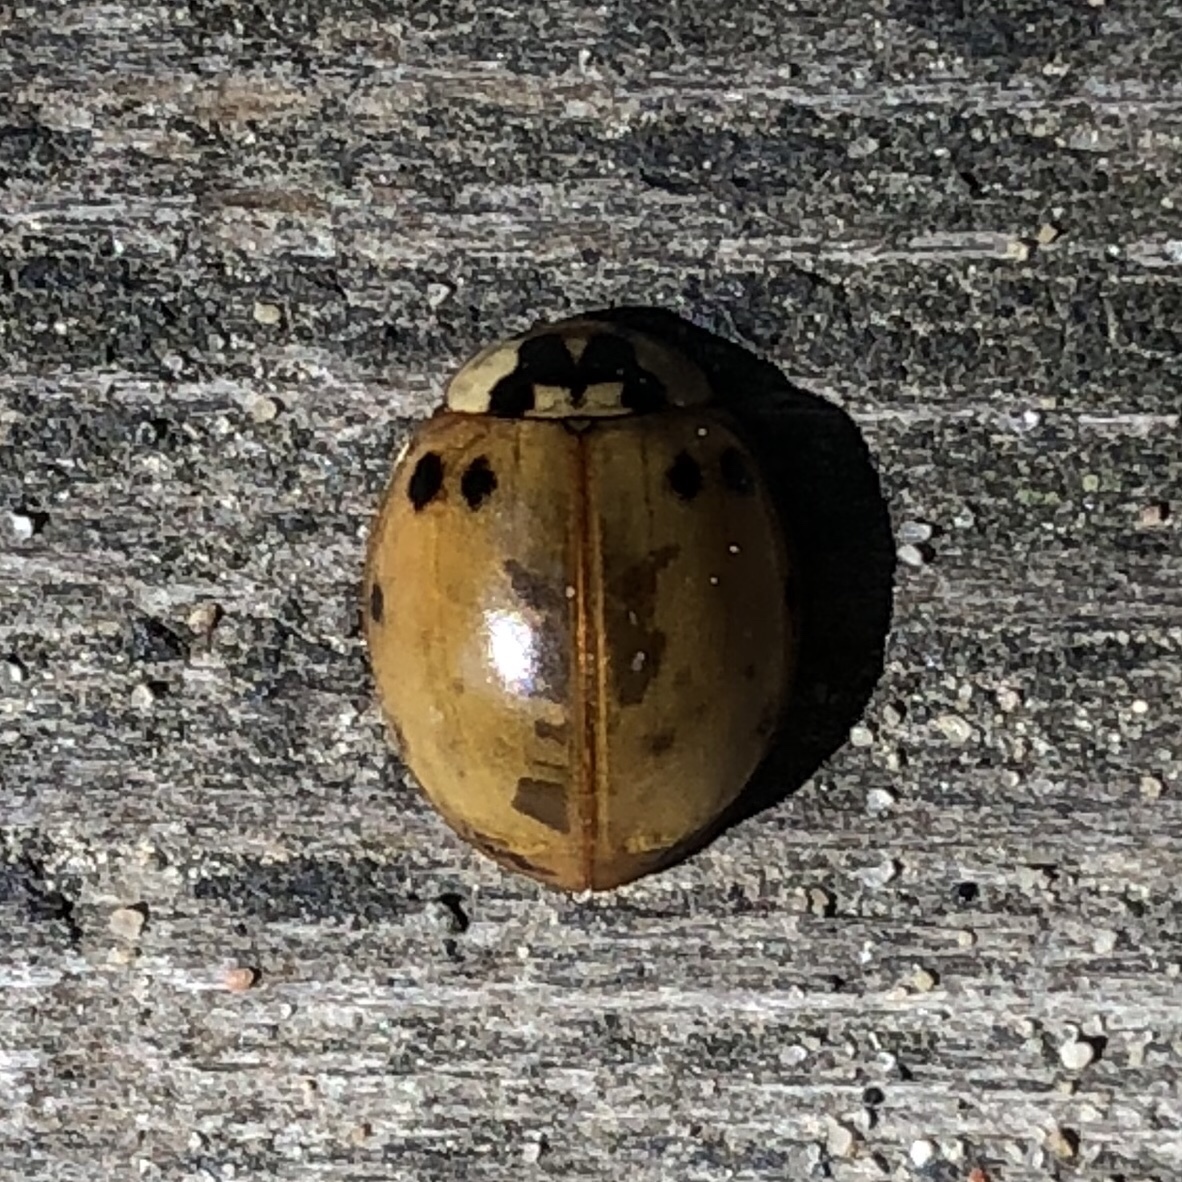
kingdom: Animalia
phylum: Arthropoda
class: Insecta
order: Coleoptera
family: Coccinellidae
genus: Harmonia
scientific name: Harmonia axyridis
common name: Harlequin ladybird
